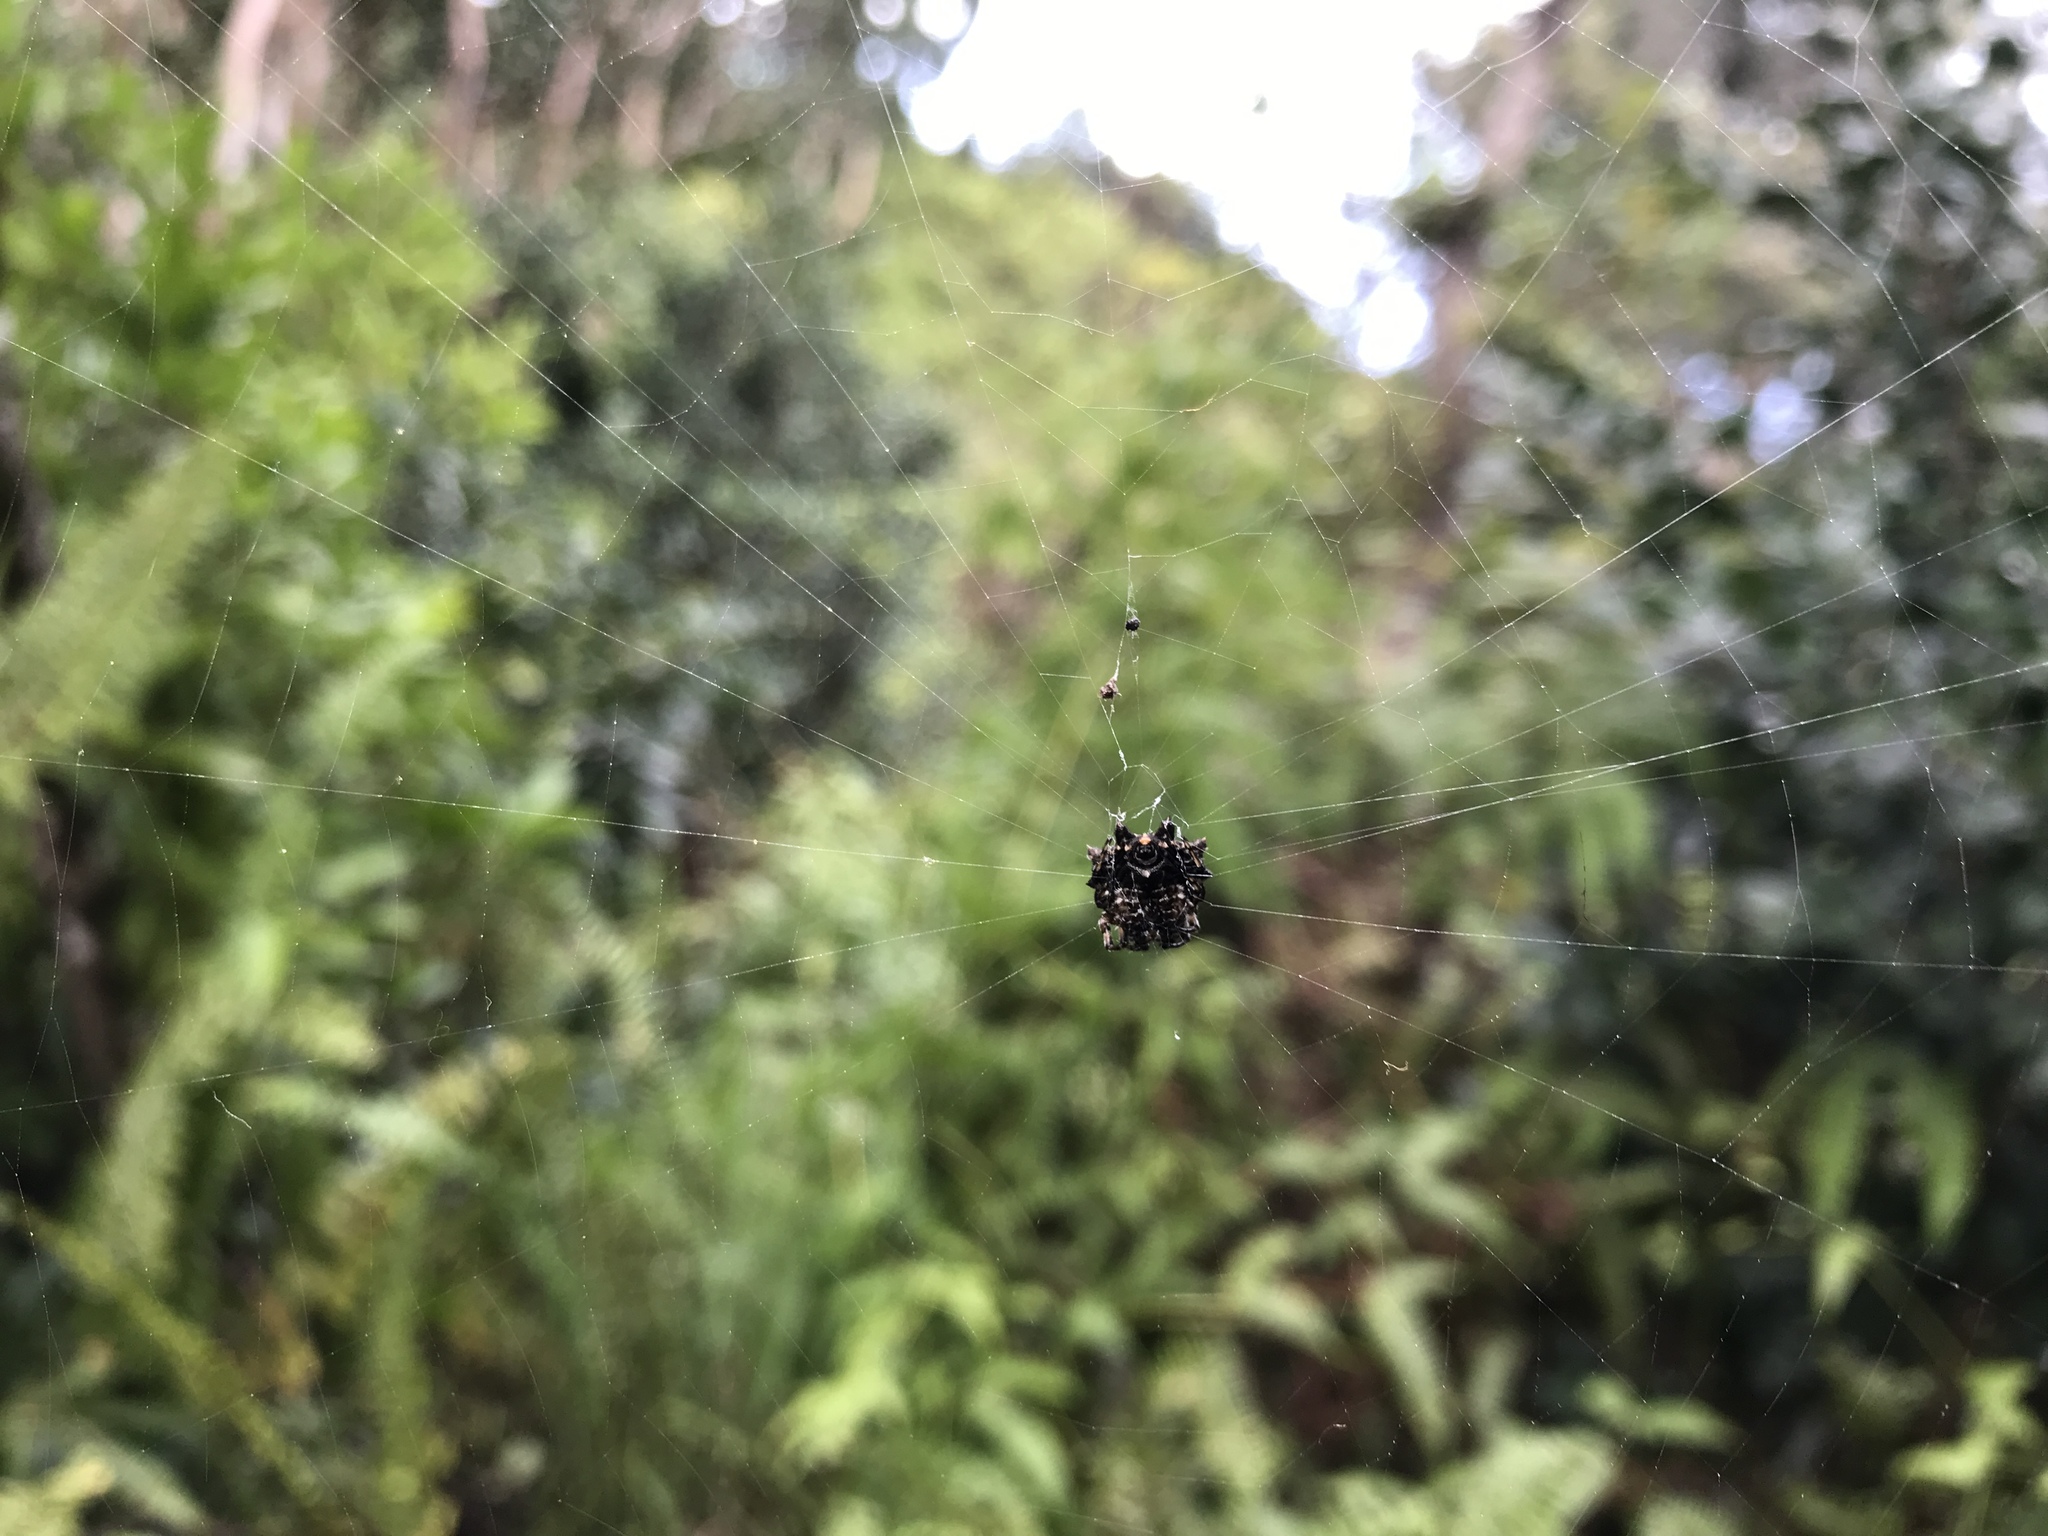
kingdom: Animalia
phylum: Arthropoda
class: Arachnida
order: Araneae
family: Araneidae
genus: Thelacantha
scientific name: Thelacantha brevispina
